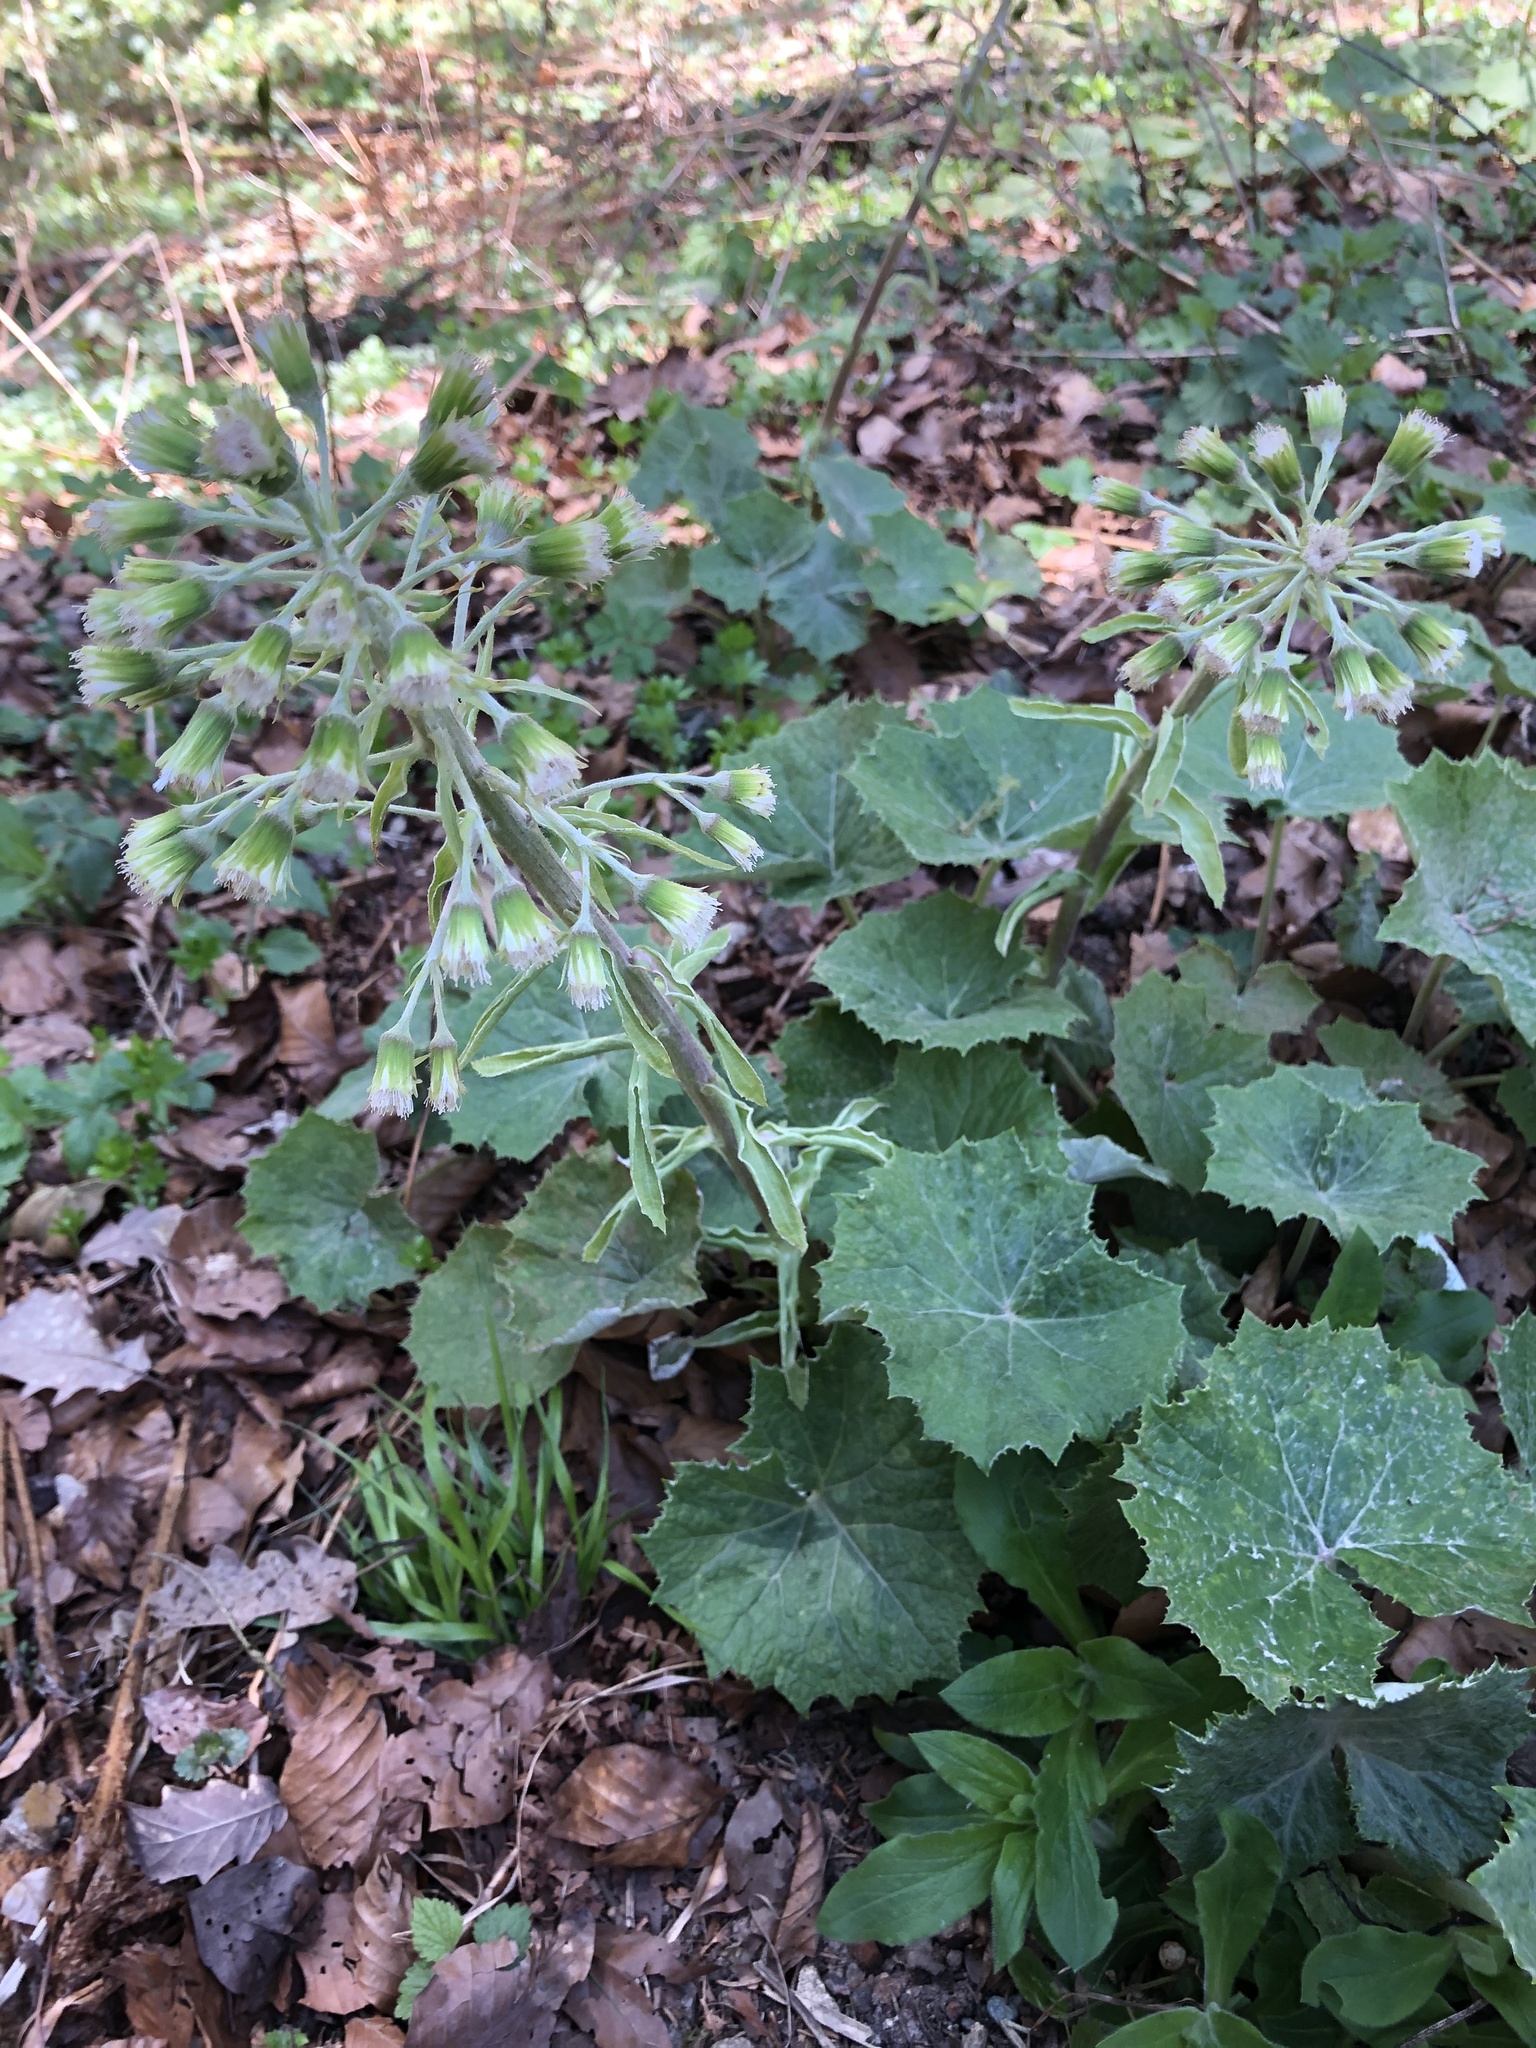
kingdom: Plantae
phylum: Tracheophyta
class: Magnoliopsida
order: Asterales
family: Asteraceae
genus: Petasites
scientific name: Petasites albus
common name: White butterbur
